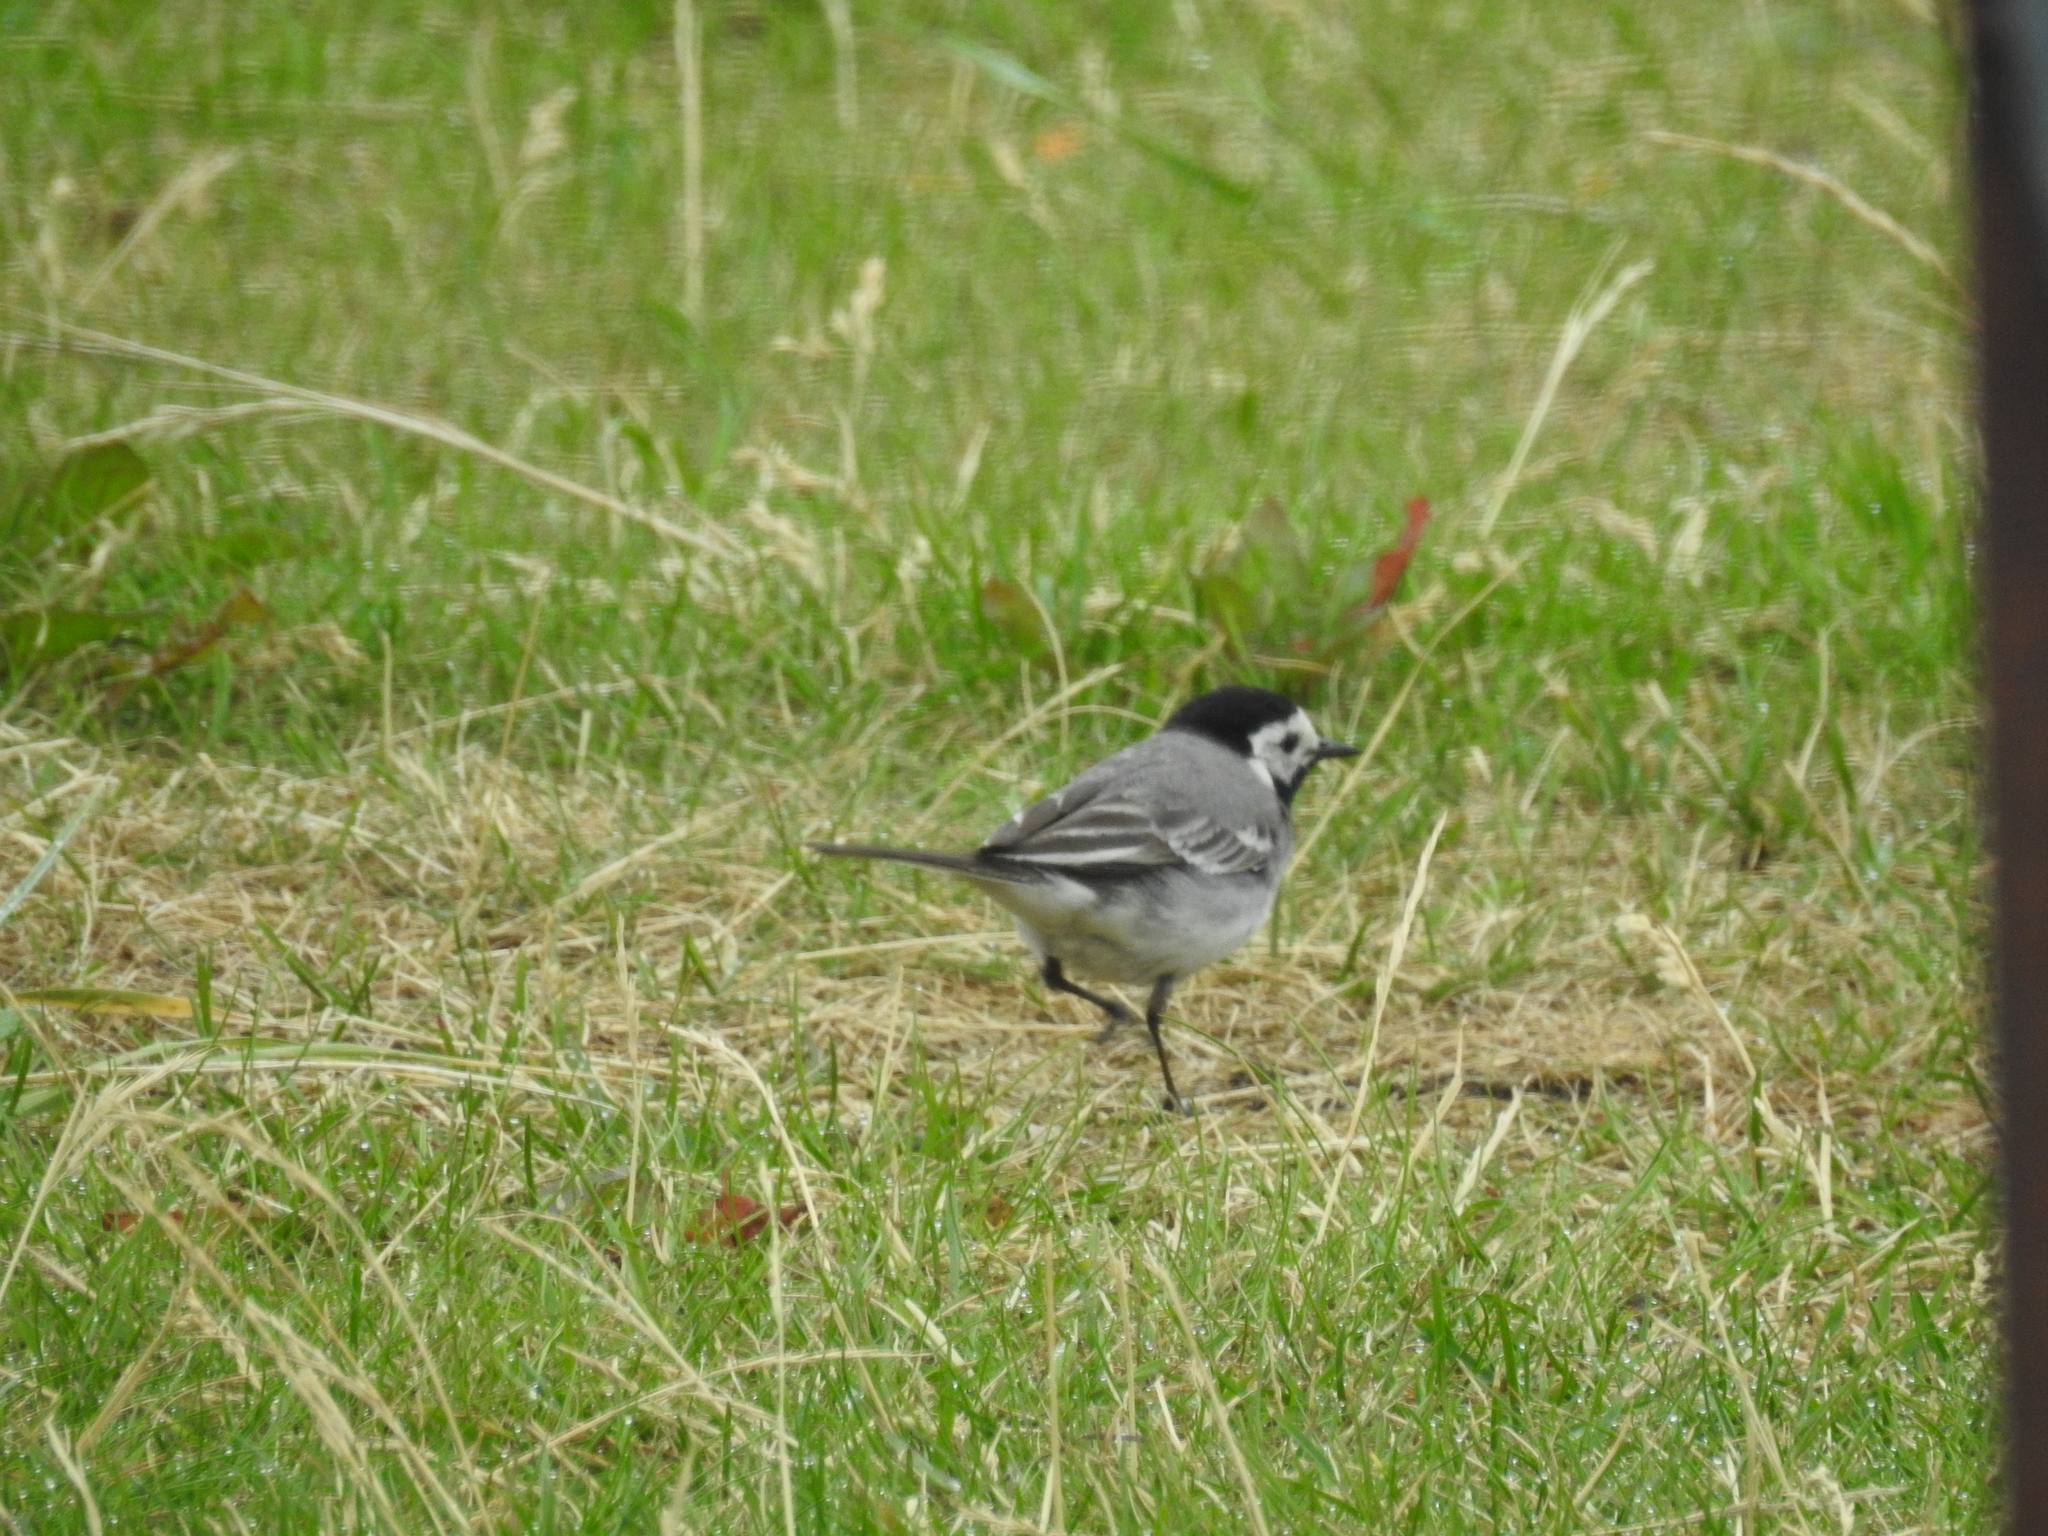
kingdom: Animalia
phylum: Chordata
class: Aves
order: Passeriformes
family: Motacillidae
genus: Motacilla
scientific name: Motacilla alba
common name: White wagtail
